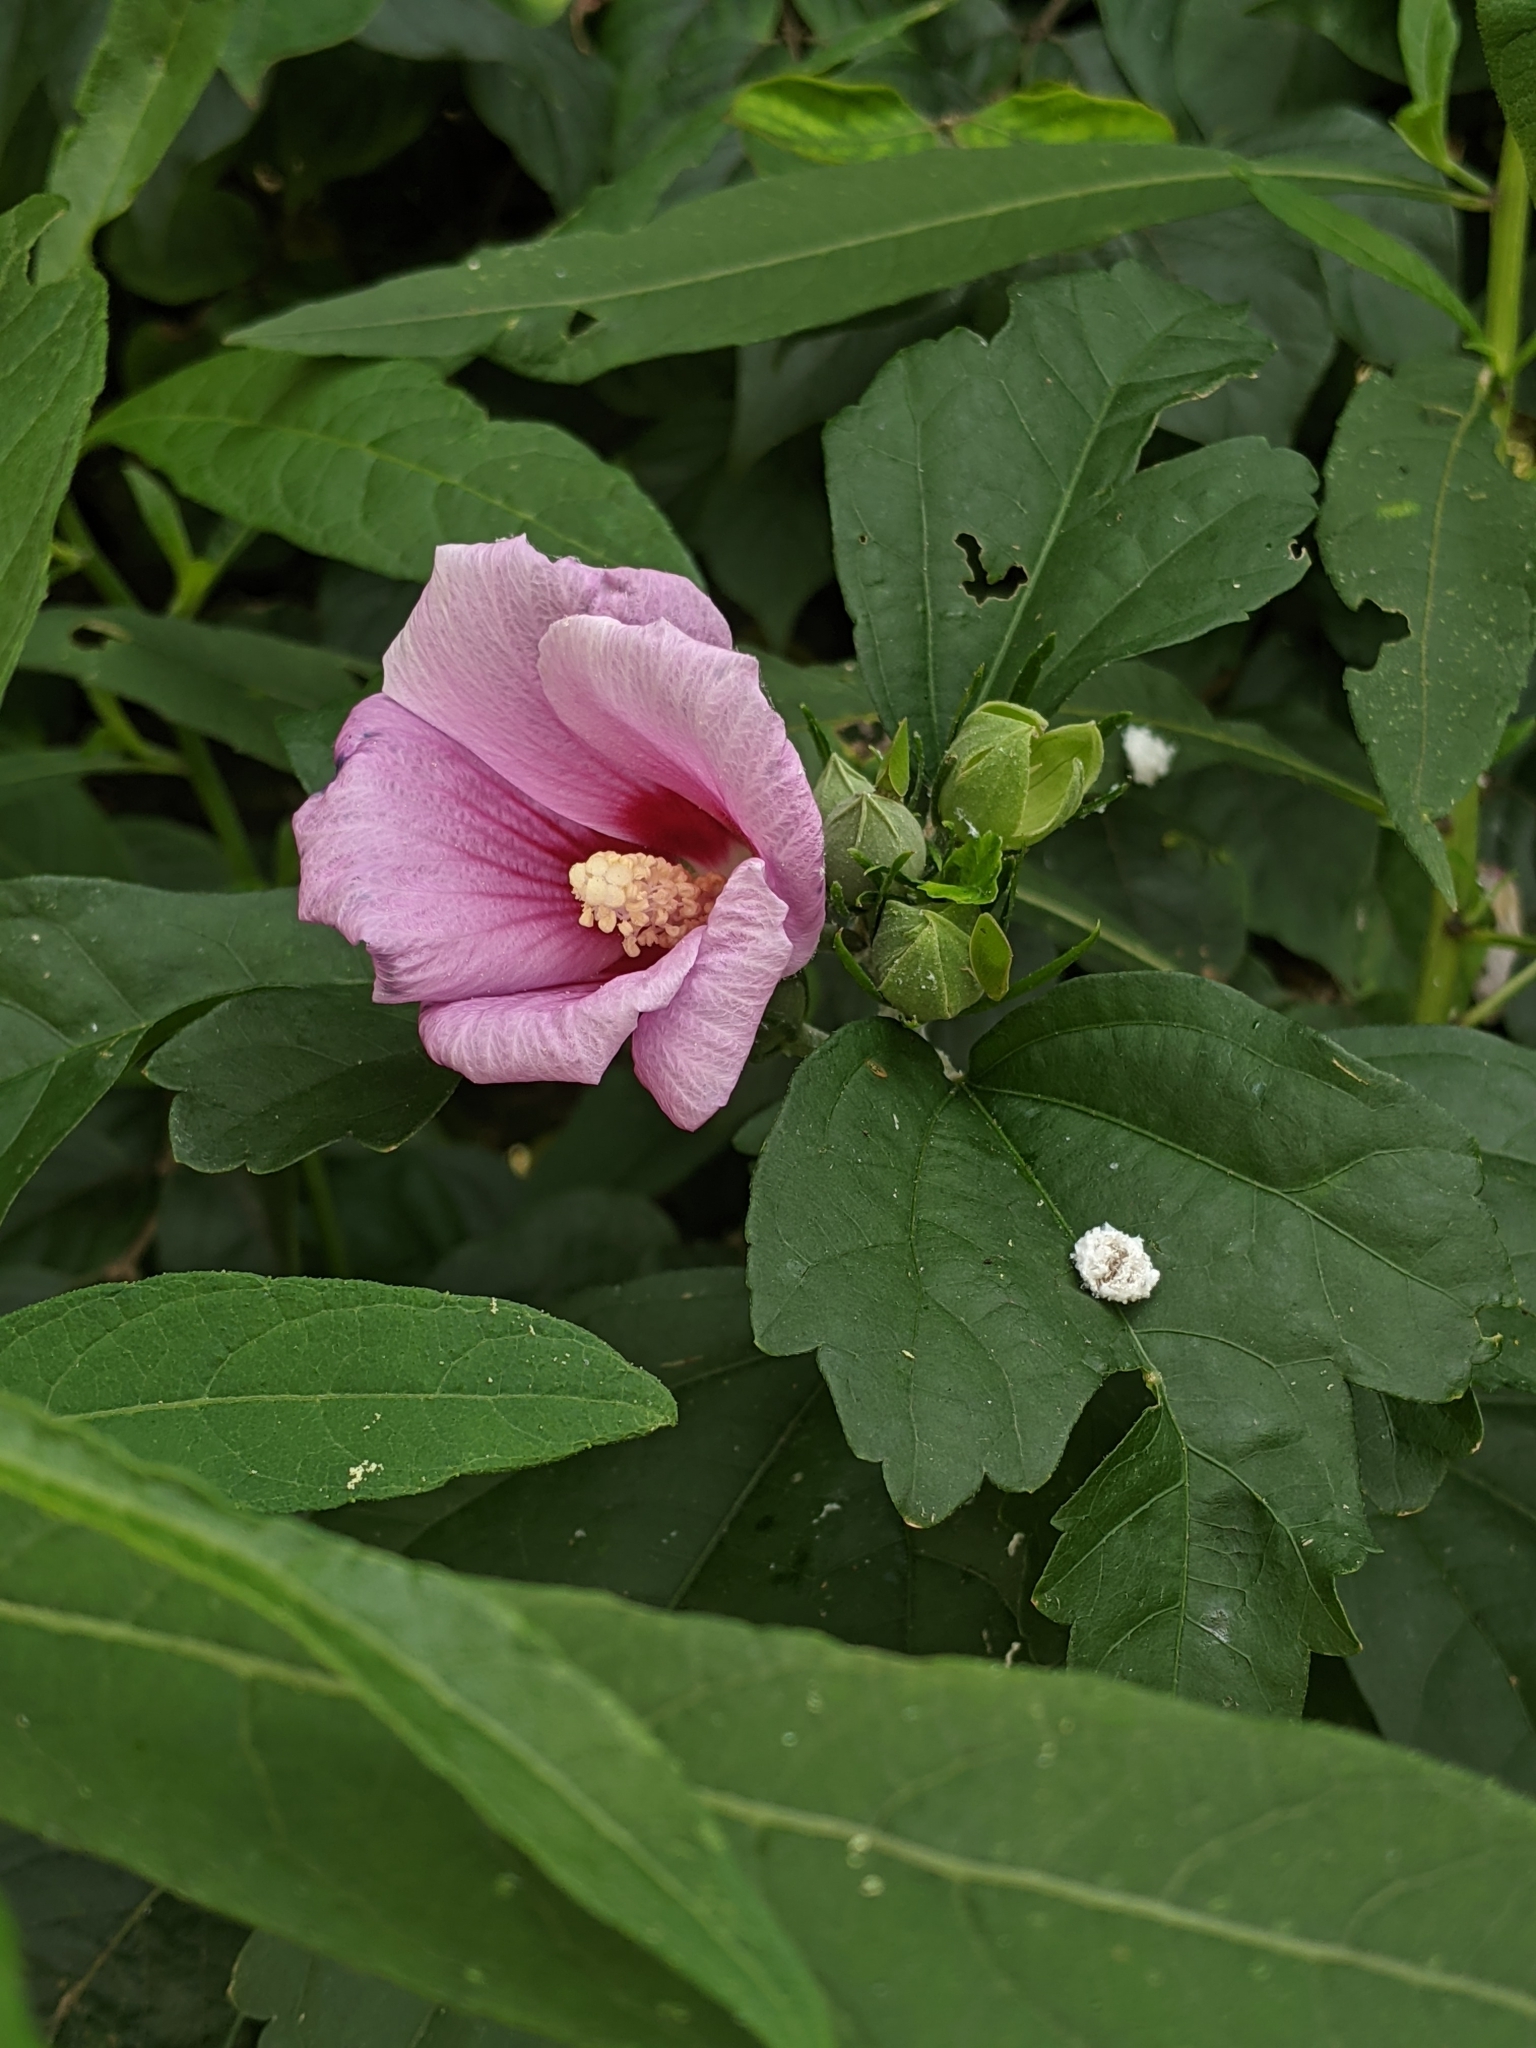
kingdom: Plantae
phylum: Tracheophyta
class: Magnoliopsida
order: Malvales
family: Malvaceae
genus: Hibiscus
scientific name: Hibiscus syriacus
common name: Syrian ketmia
